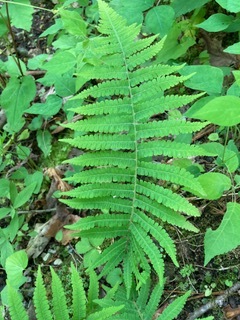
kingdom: Plantae
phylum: Tracheophyta
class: Polypodiopsida
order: Polypodiales
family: Athyriaceae
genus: Deparia
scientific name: Deparia acrostichoides
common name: Silver false spleenwort
